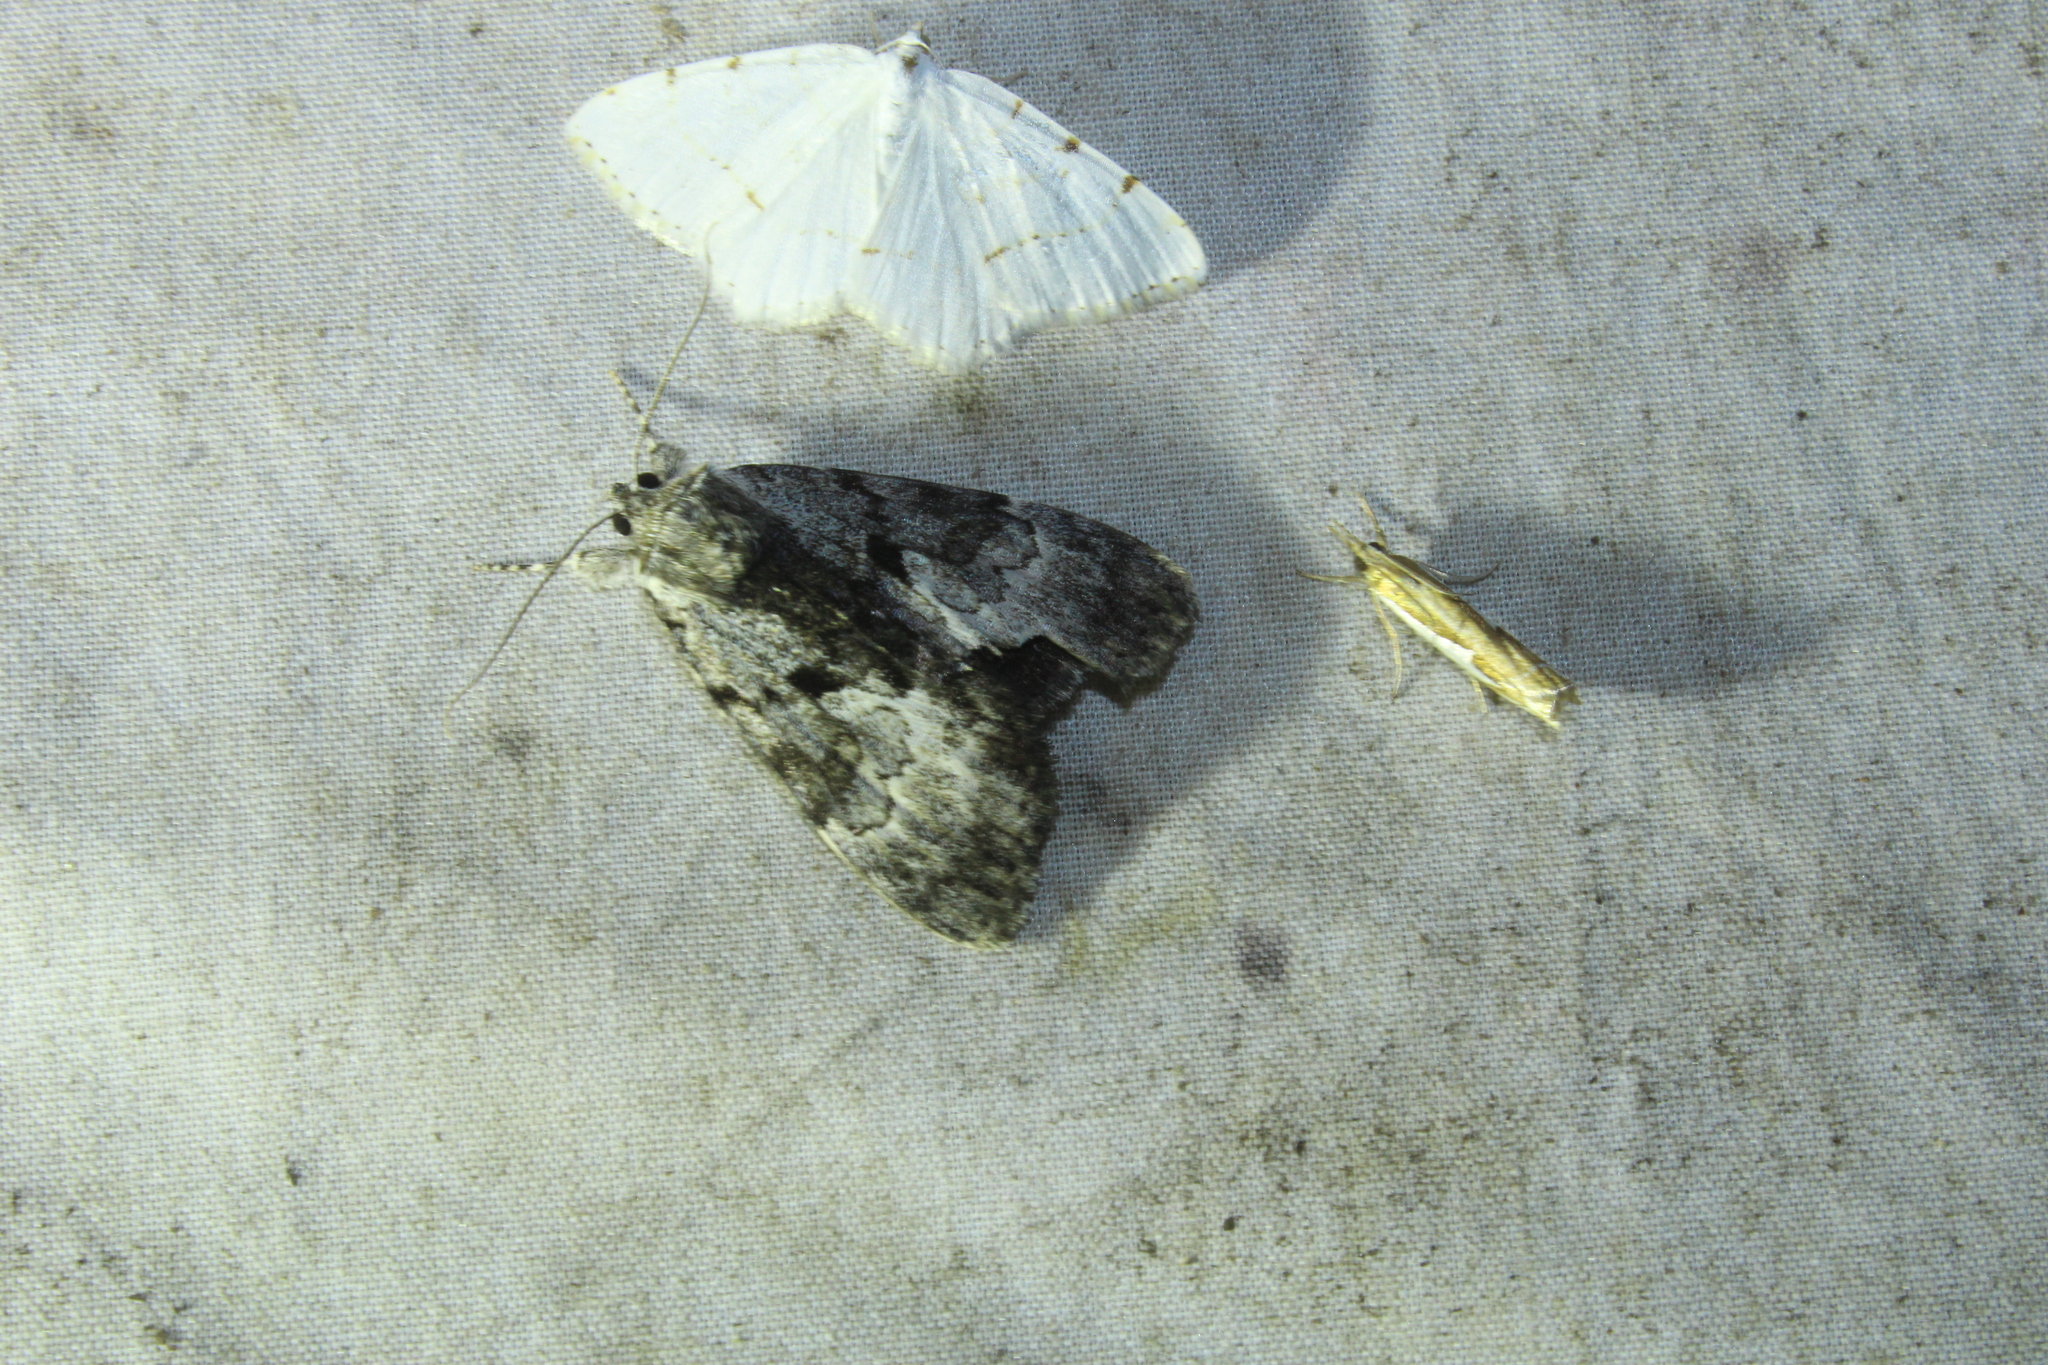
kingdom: Animalia
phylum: Arthropoda
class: Insecta
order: Lepidoptera
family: Erebidae
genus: Catocala
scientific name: Catocala andromedae
